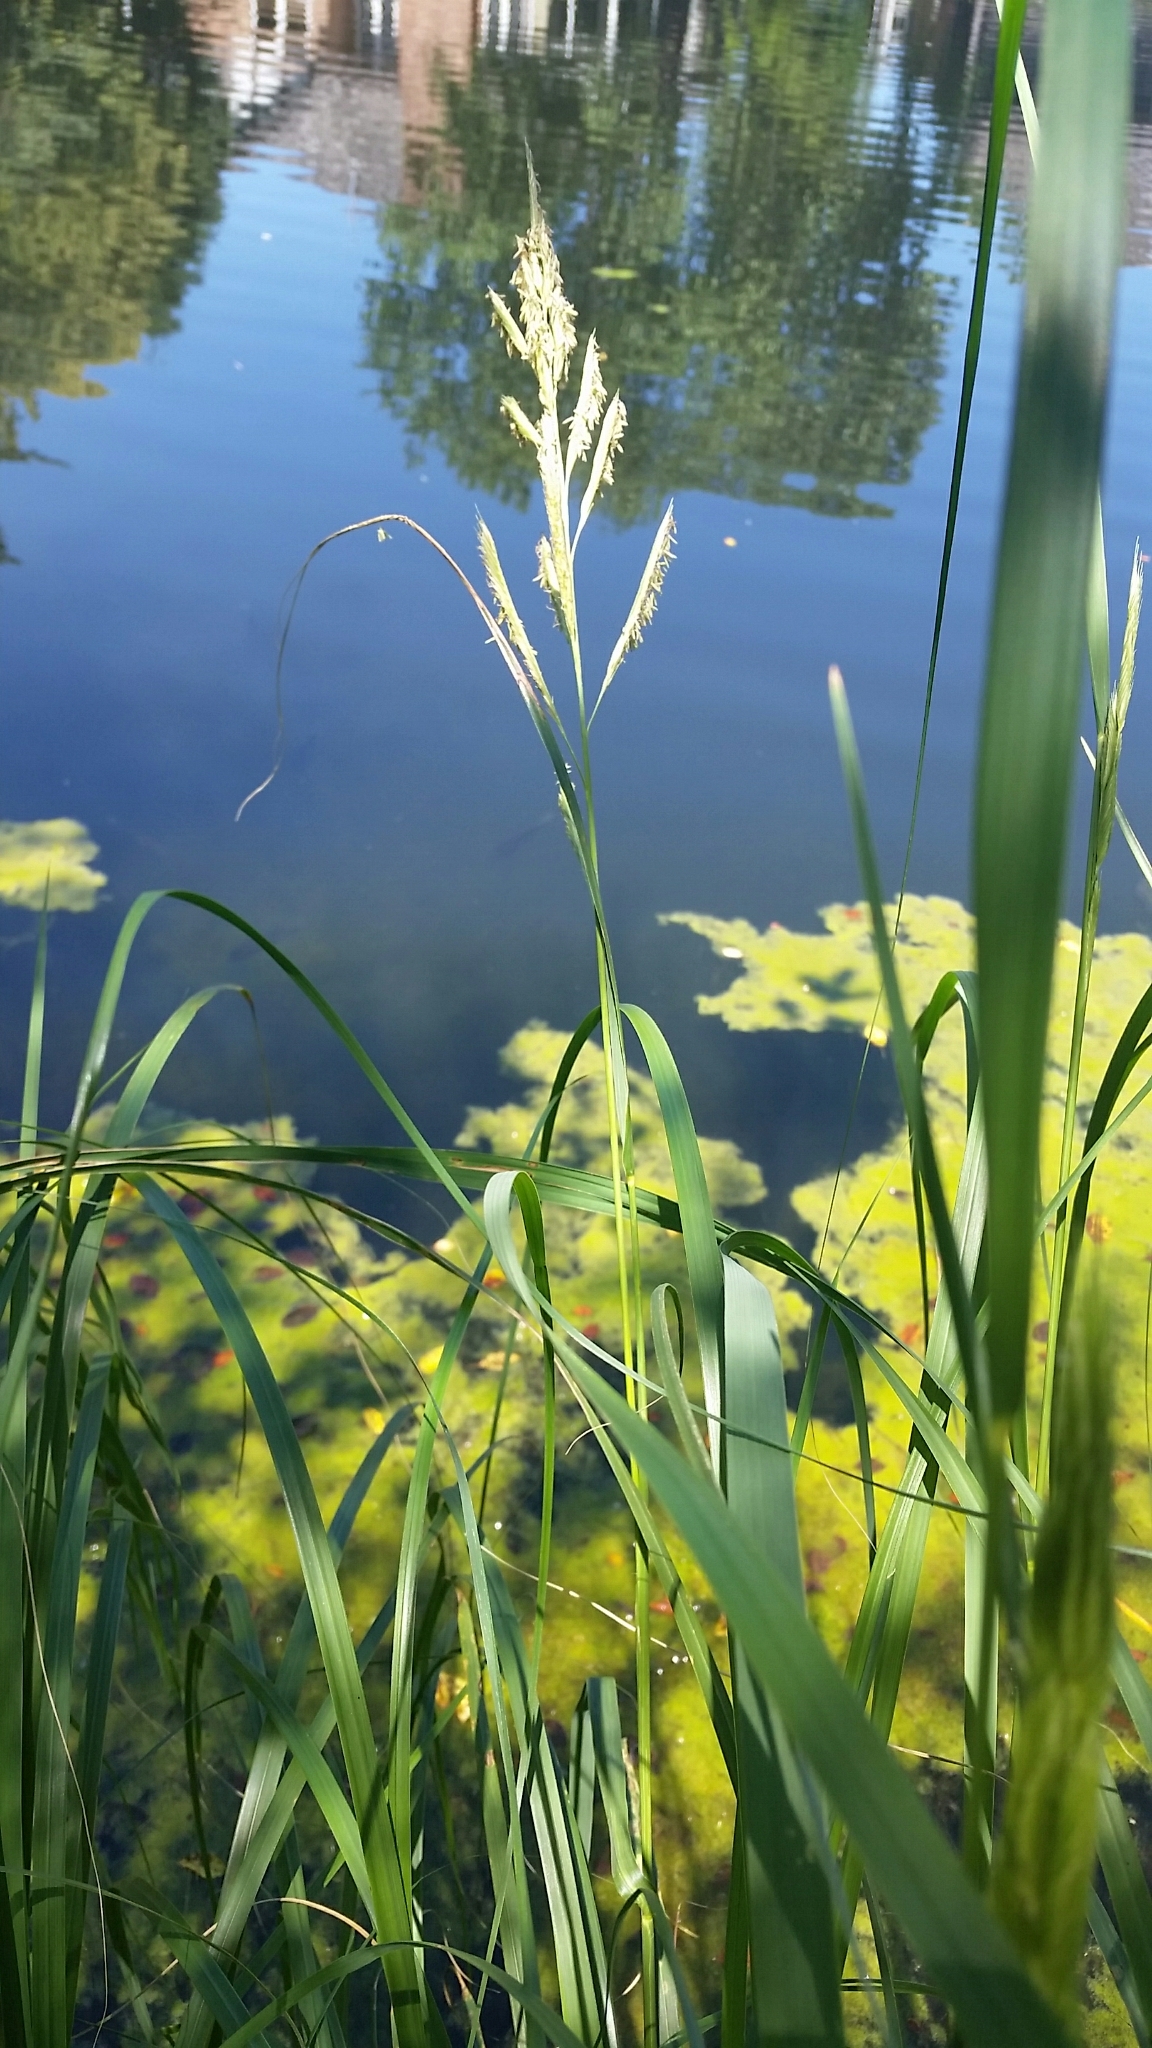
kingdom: Plantae
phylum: Tracheophyta
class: Liliopsida
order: Poales
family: Poaceae
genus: Sporobolus
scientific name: Sporobolus michauxianus
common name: Freshwater cordgrass
